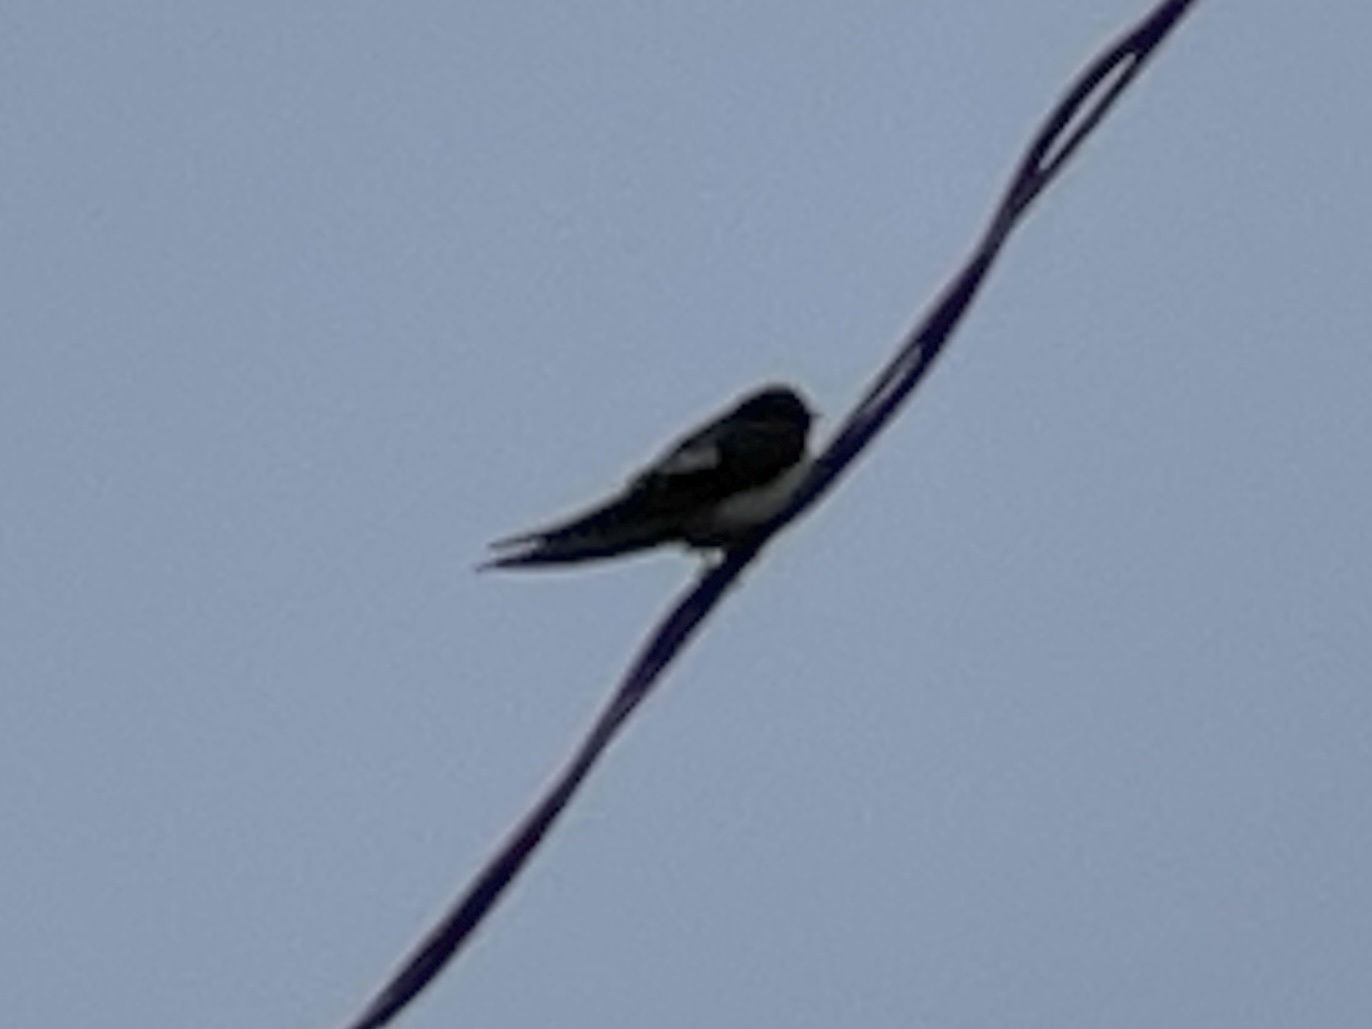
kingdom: Animalia
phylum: Chordata
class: Aves
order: Passeriformes
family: Hirundinidae
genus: Hirundo
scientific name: Hirundo rustica
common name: Barn swallow
